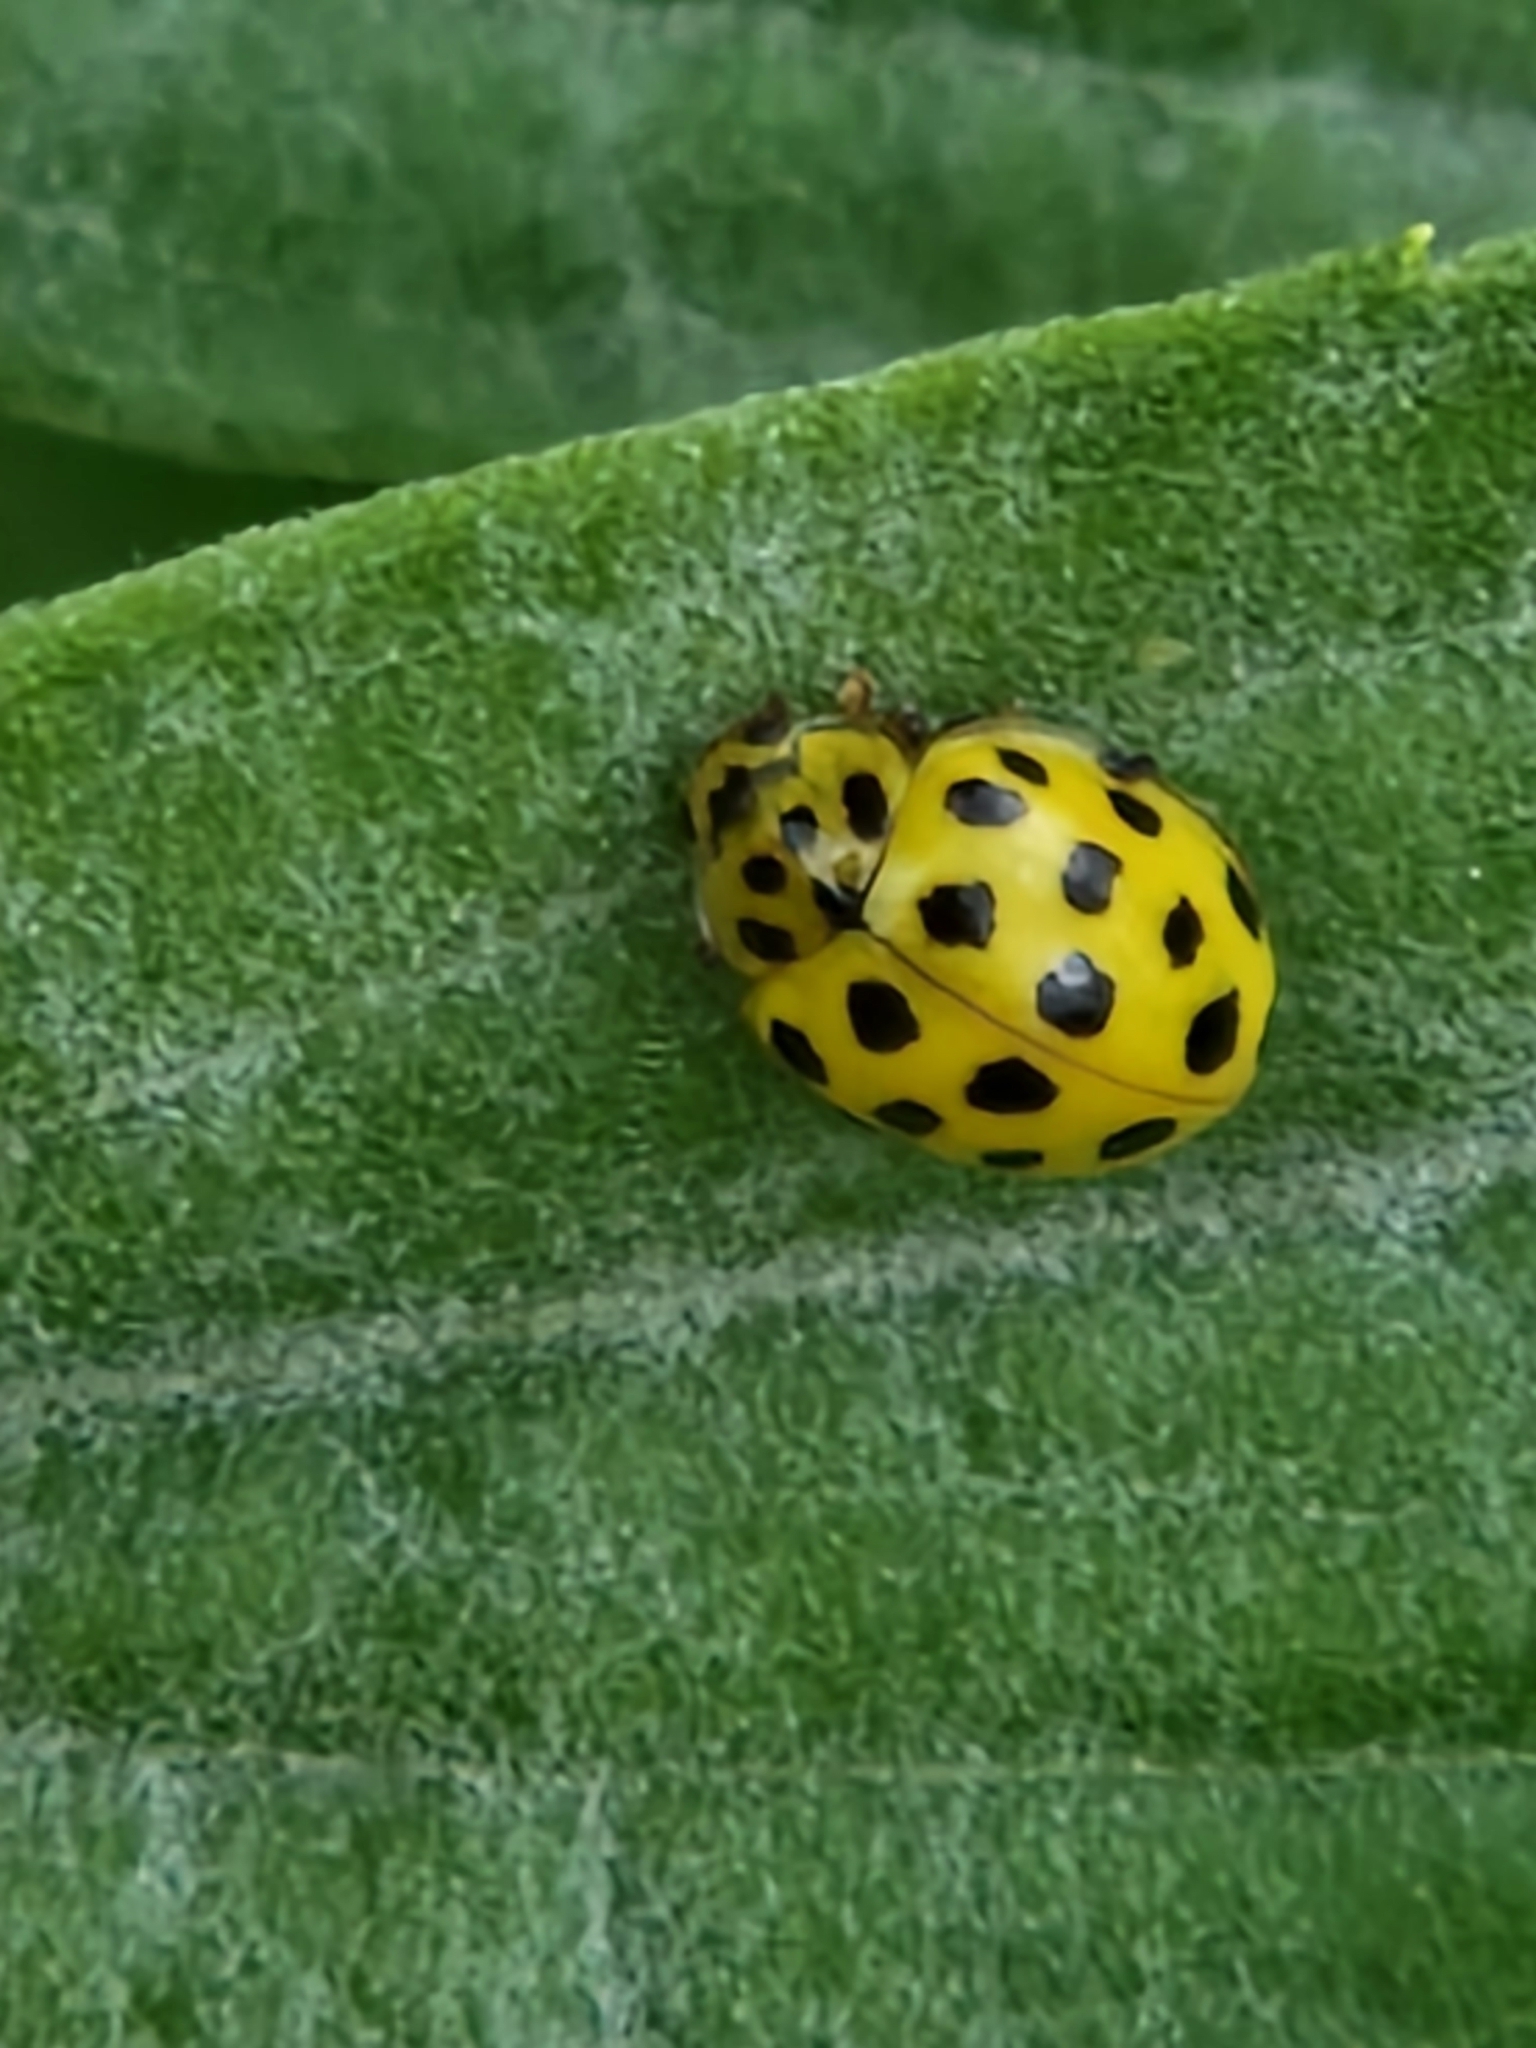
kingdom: Animalia
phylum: Arthropoda
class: Insecta
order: Coleoptera
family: Coccinellidae
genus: Psyllobora
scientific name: Psyllobora vigintiduopunctata
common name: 22-spot ladybird
